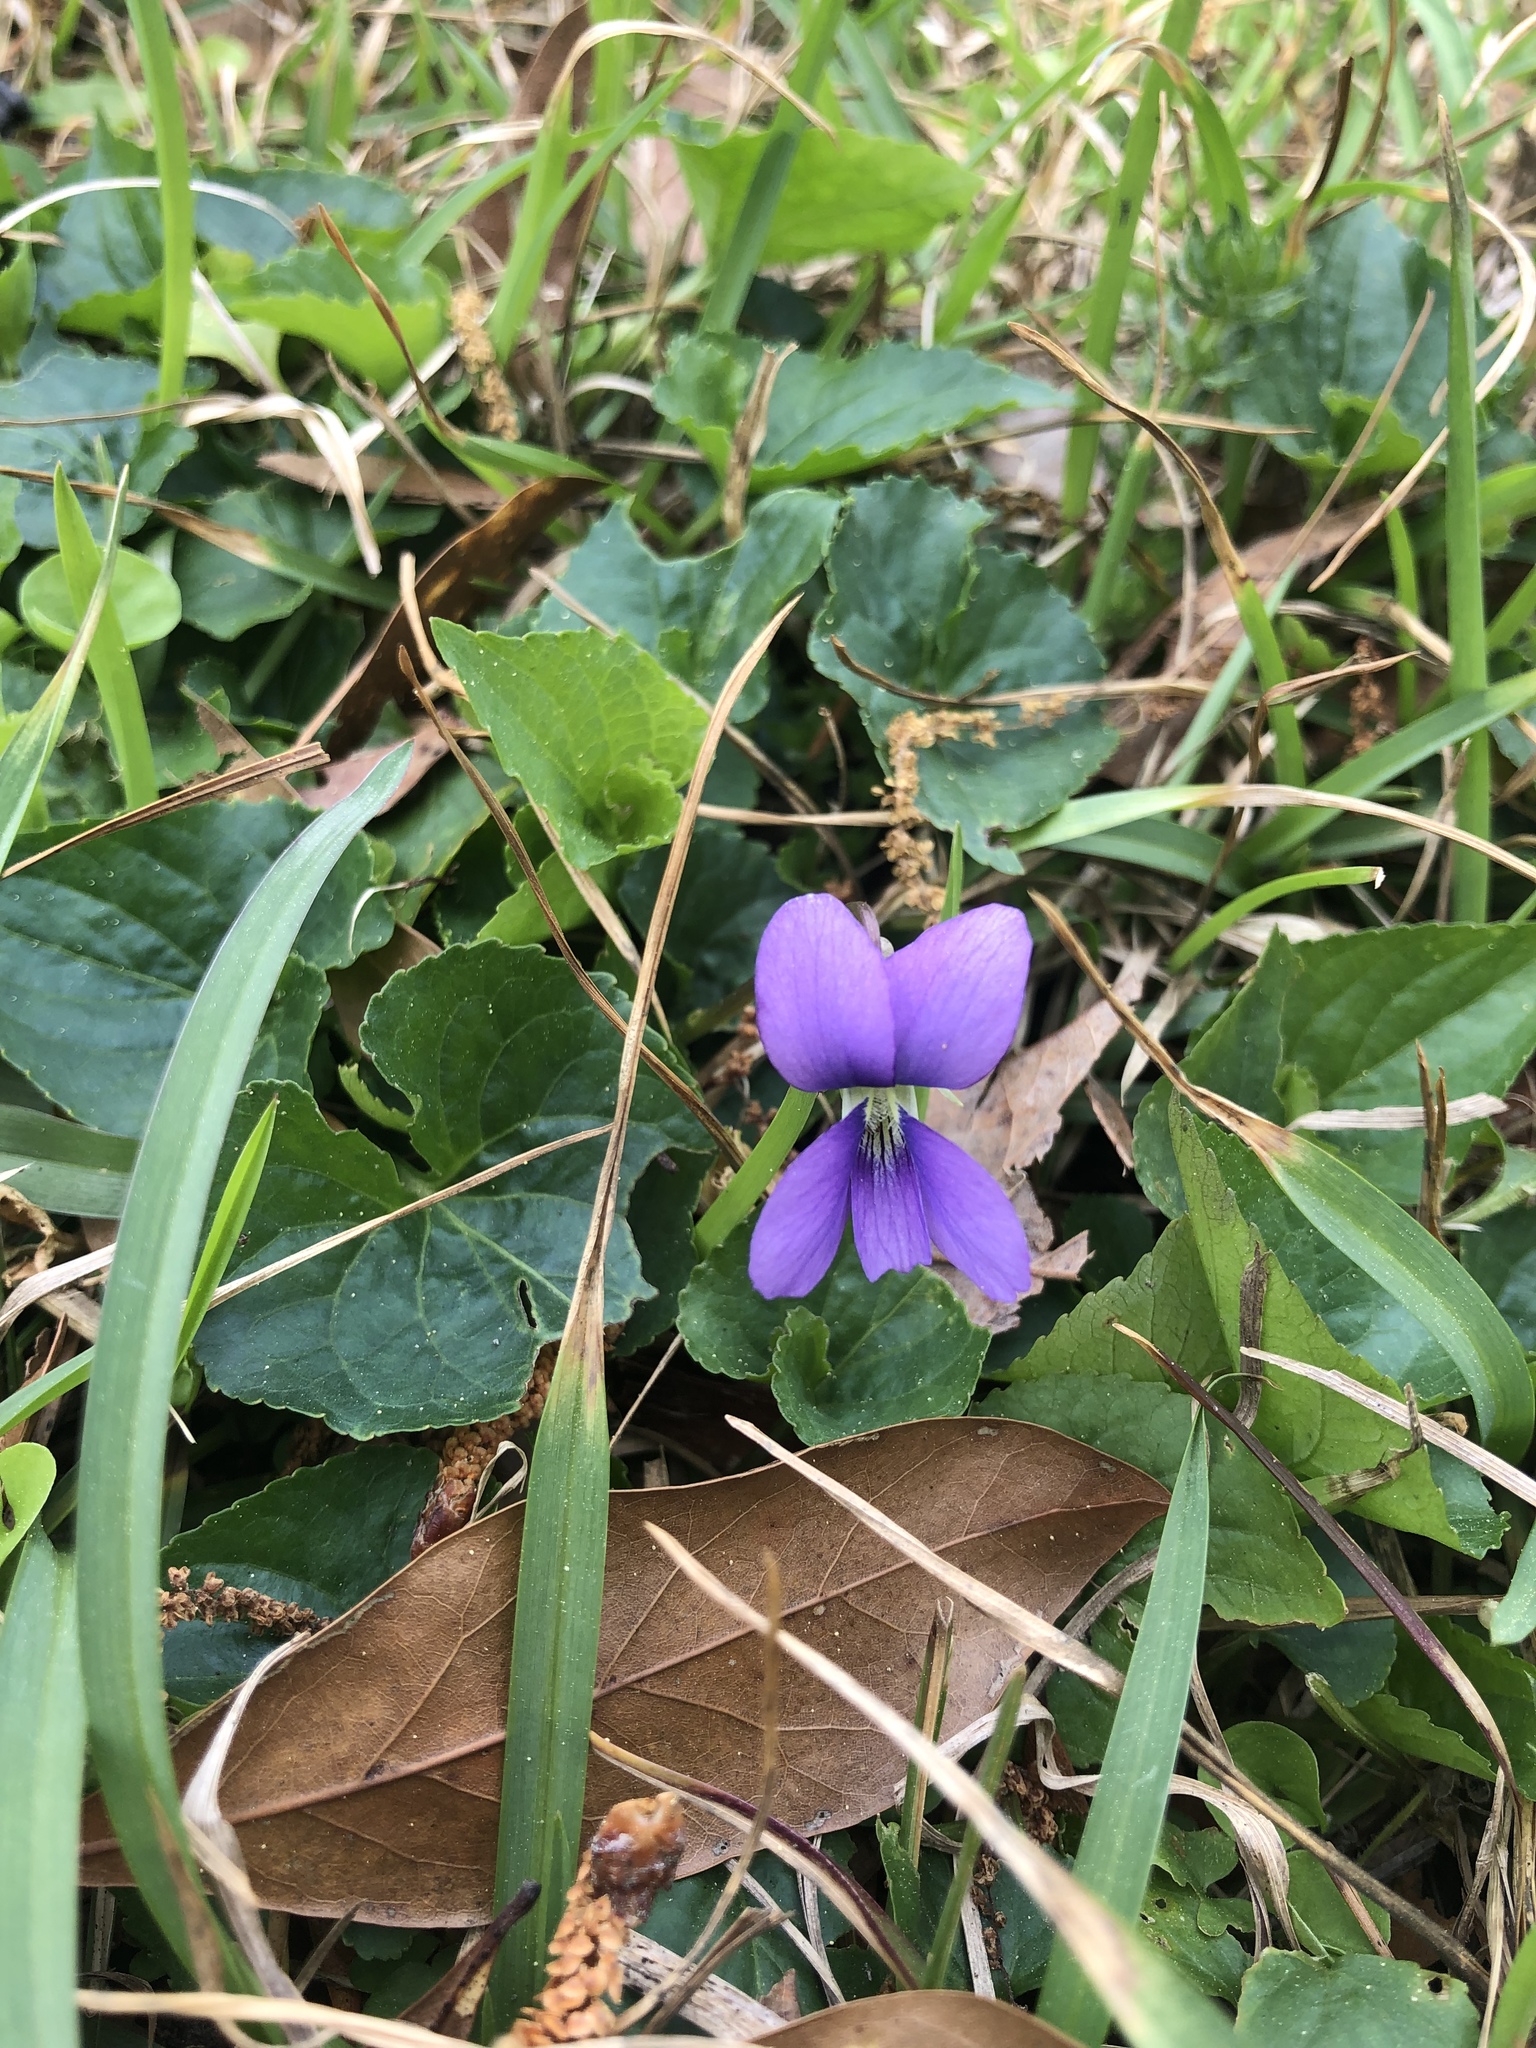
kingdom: Plantae
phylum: Tracheophyta
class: Magnoliopsida
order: Malpighiales
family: Violaceae
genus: Viola
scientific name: Viola sororia
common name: Dooryard violet
